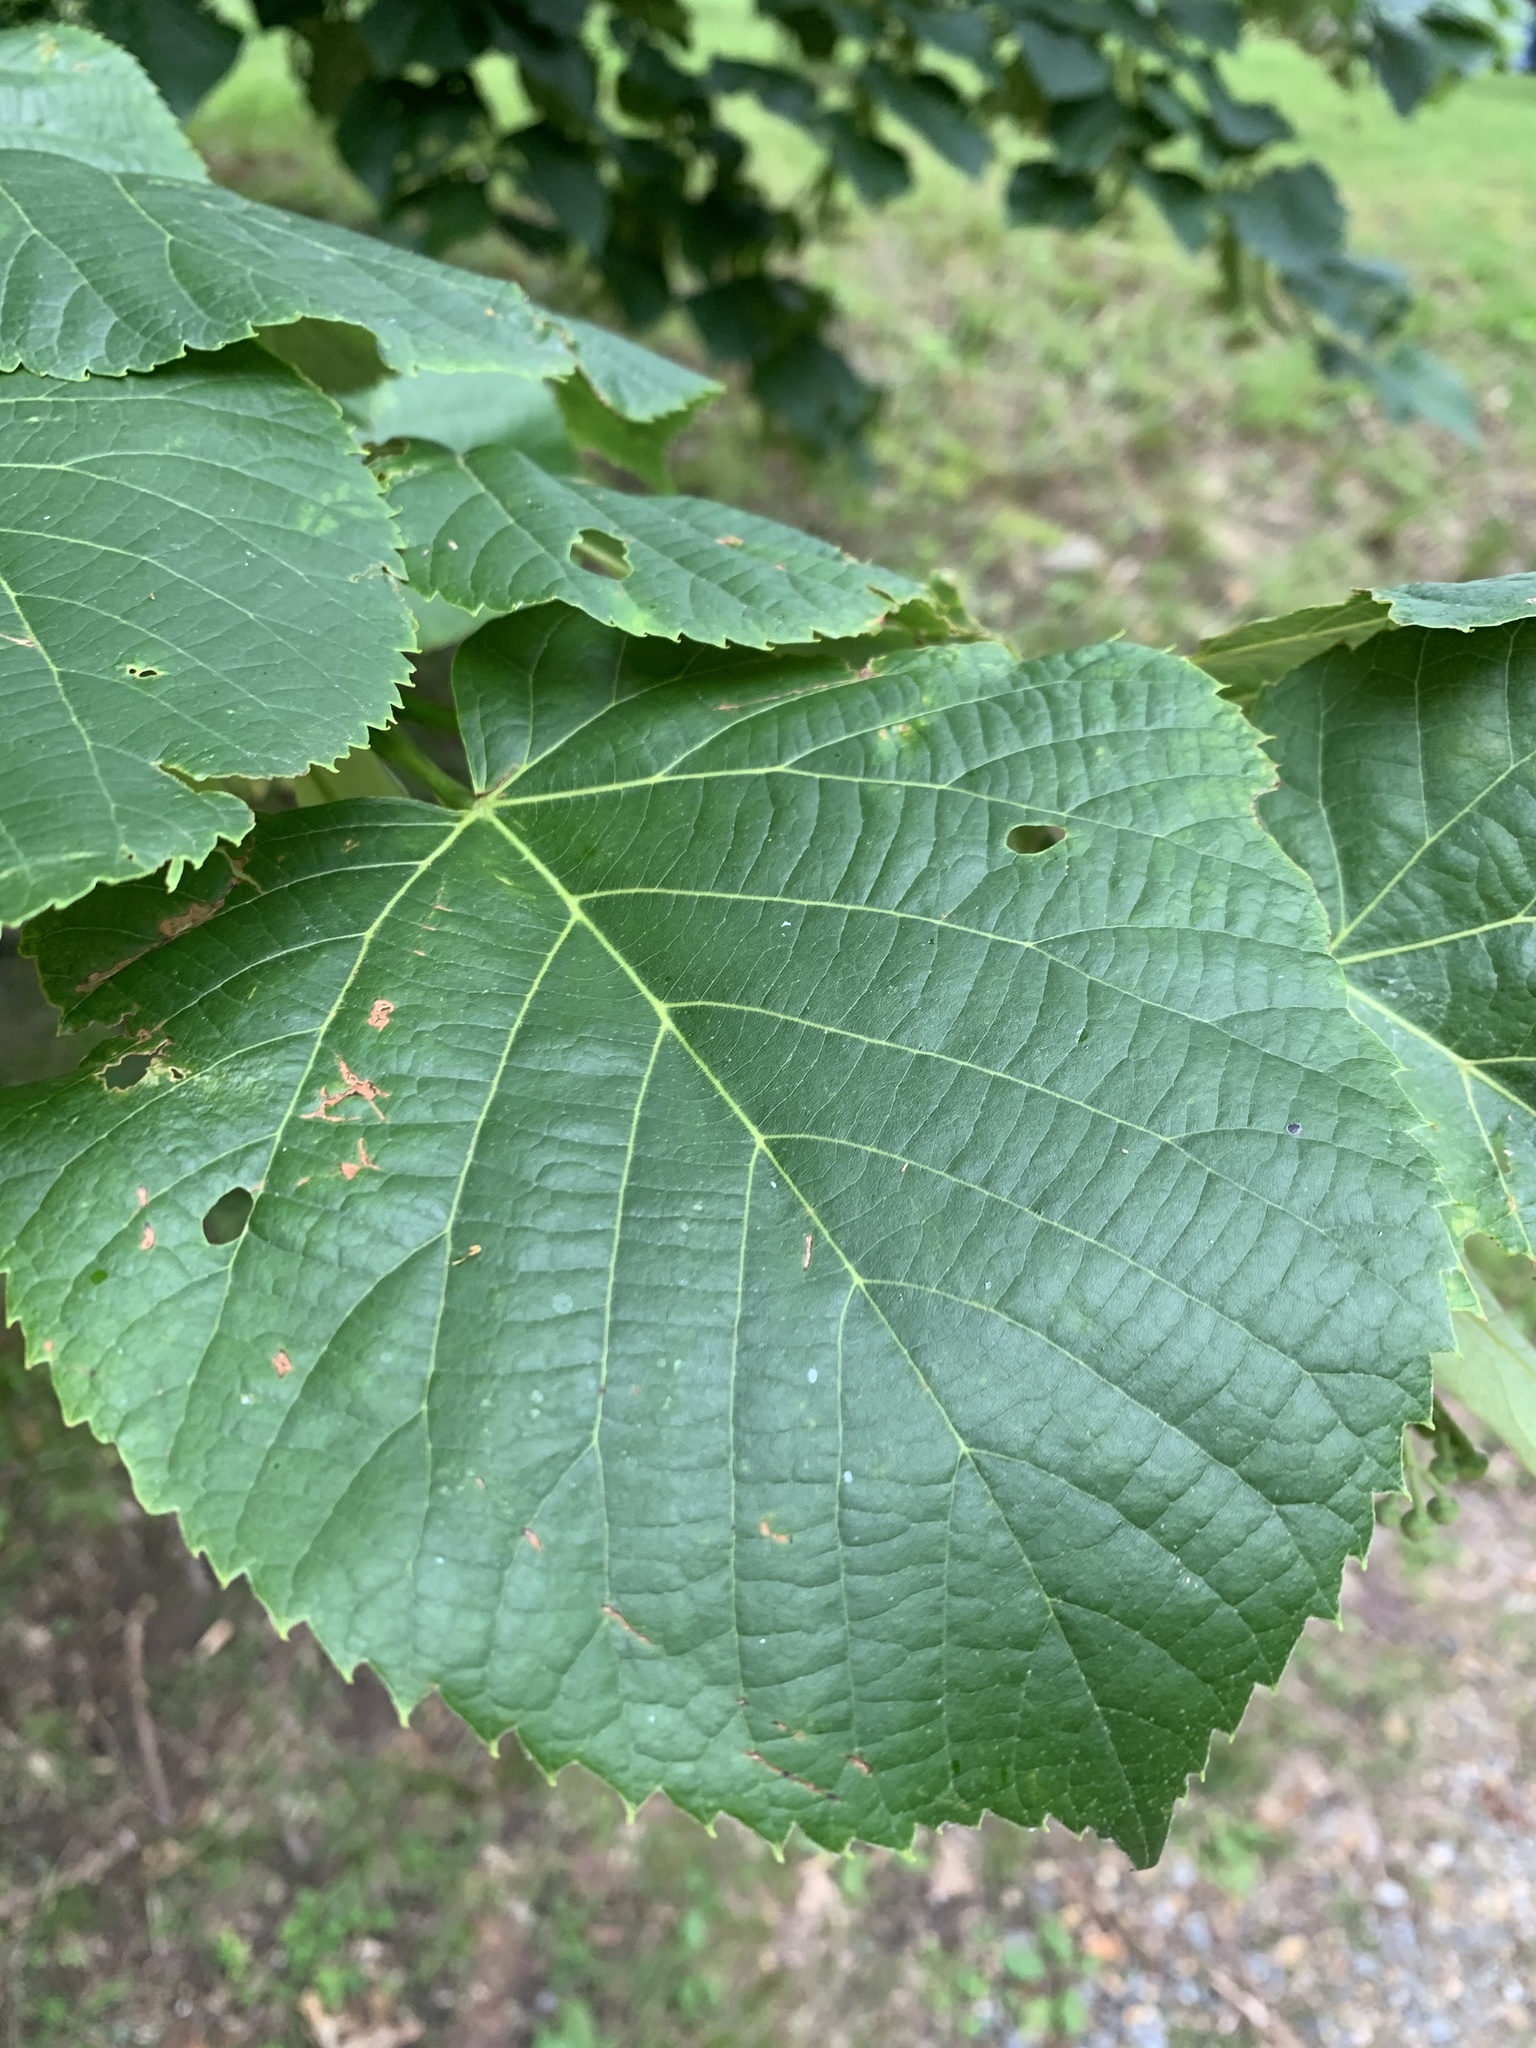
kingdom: Plantae
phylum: Tracheophyta
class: Magnoliopsida
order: Malvales
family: Malvaceae
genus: Tilia
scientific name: Tilia americana
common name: Basswood
